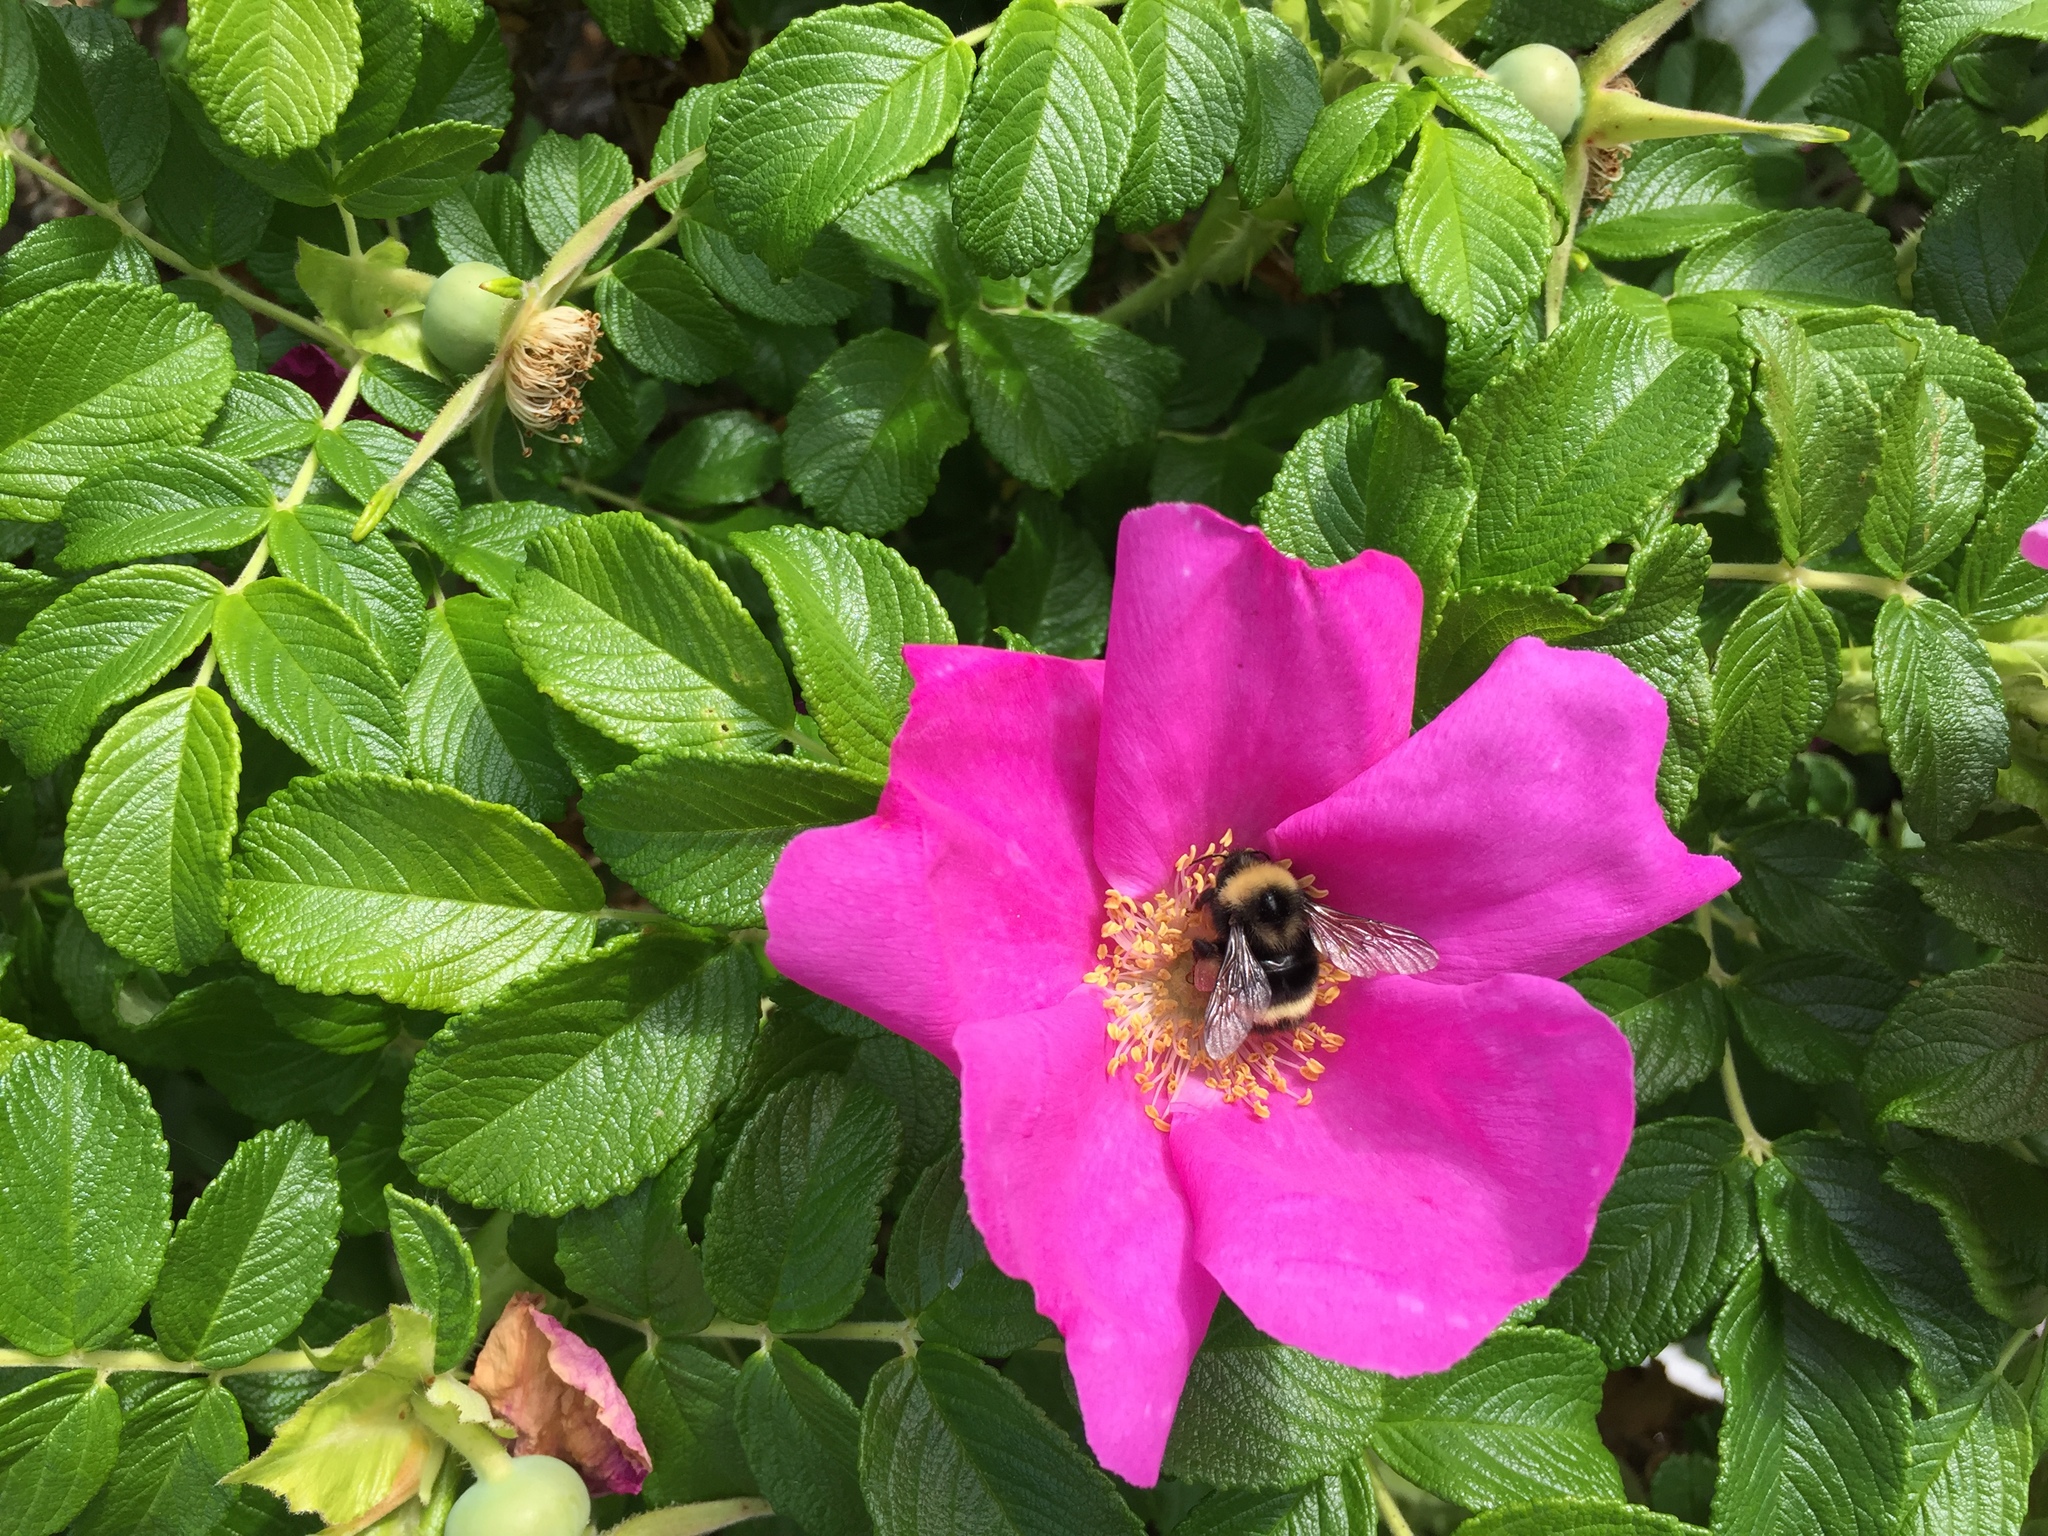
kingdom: Animalia
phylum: Arthropoda
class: Insecta
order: Hymenoptera
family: Apidae
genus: Bombus
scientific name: Bombus mckayi
